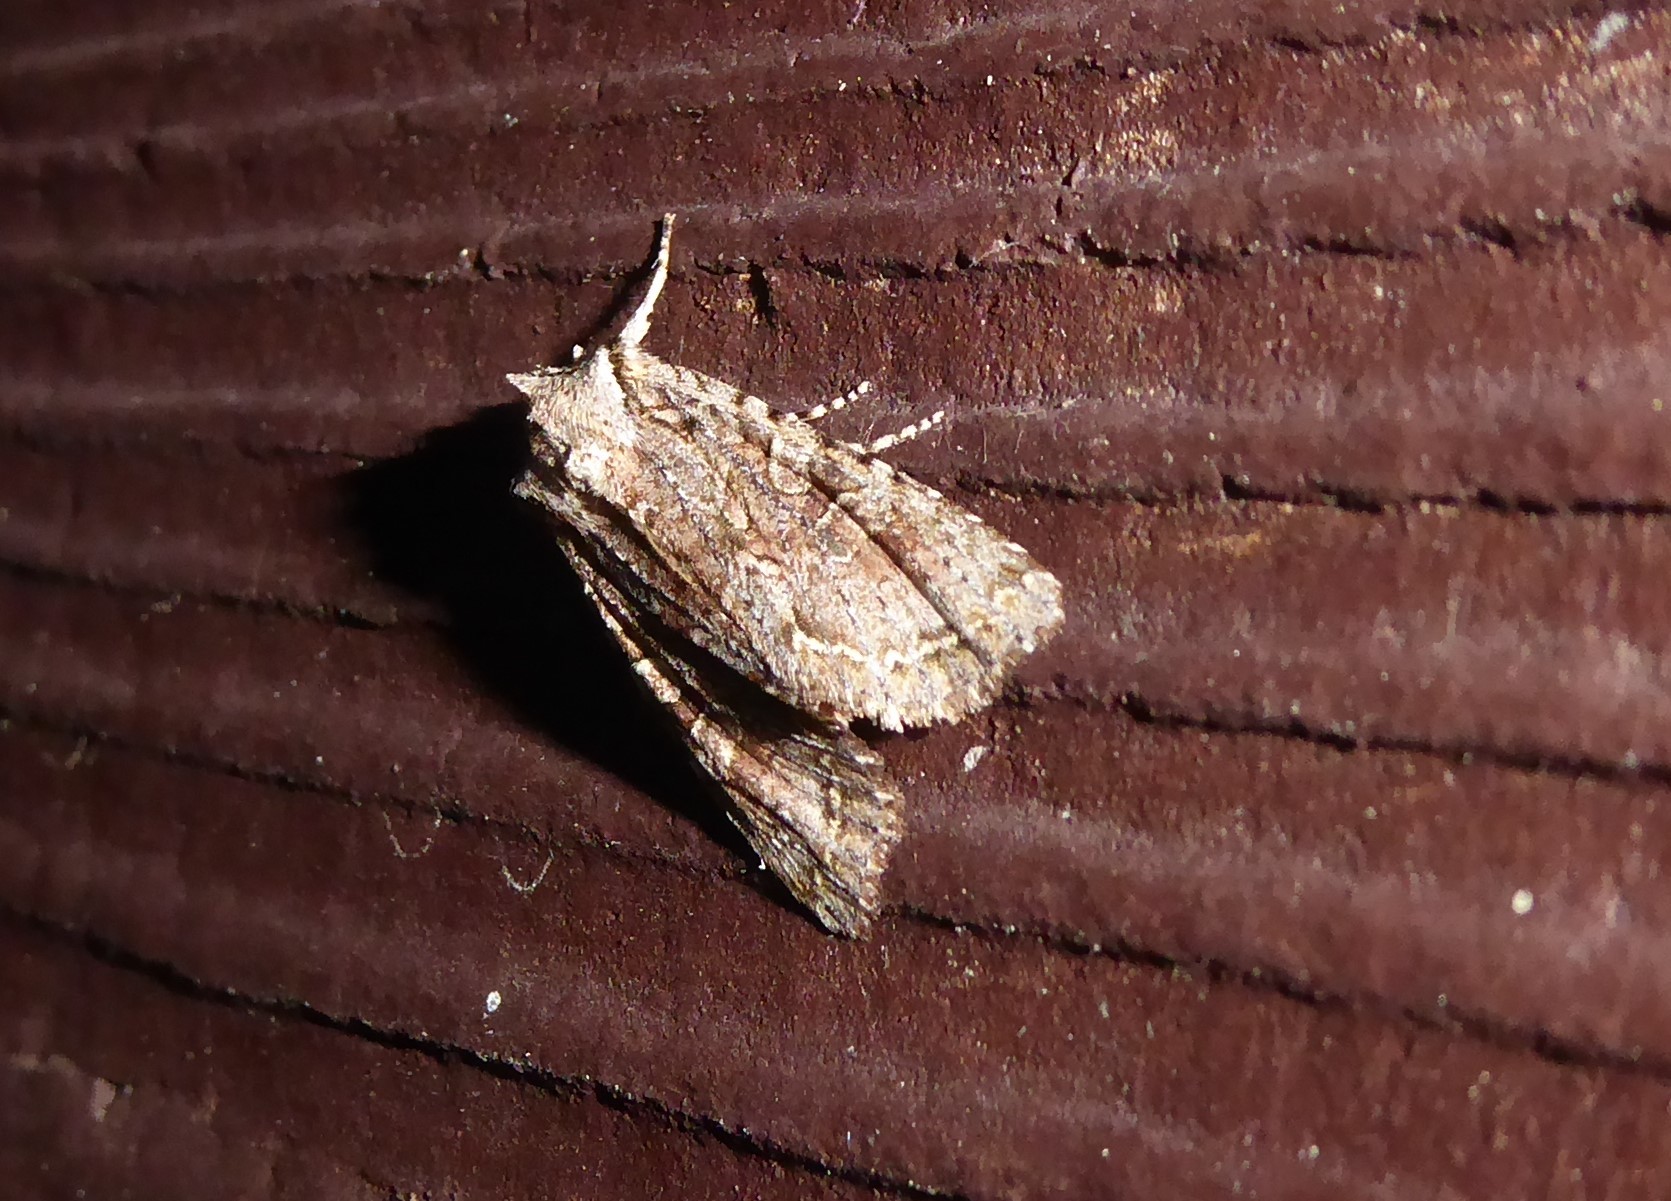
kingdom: Animalia
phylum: Arthropoda
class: Insecta
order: Lepidoptera
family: Noctuidae
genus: Ichneutica
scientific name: Ichneutica mutans
